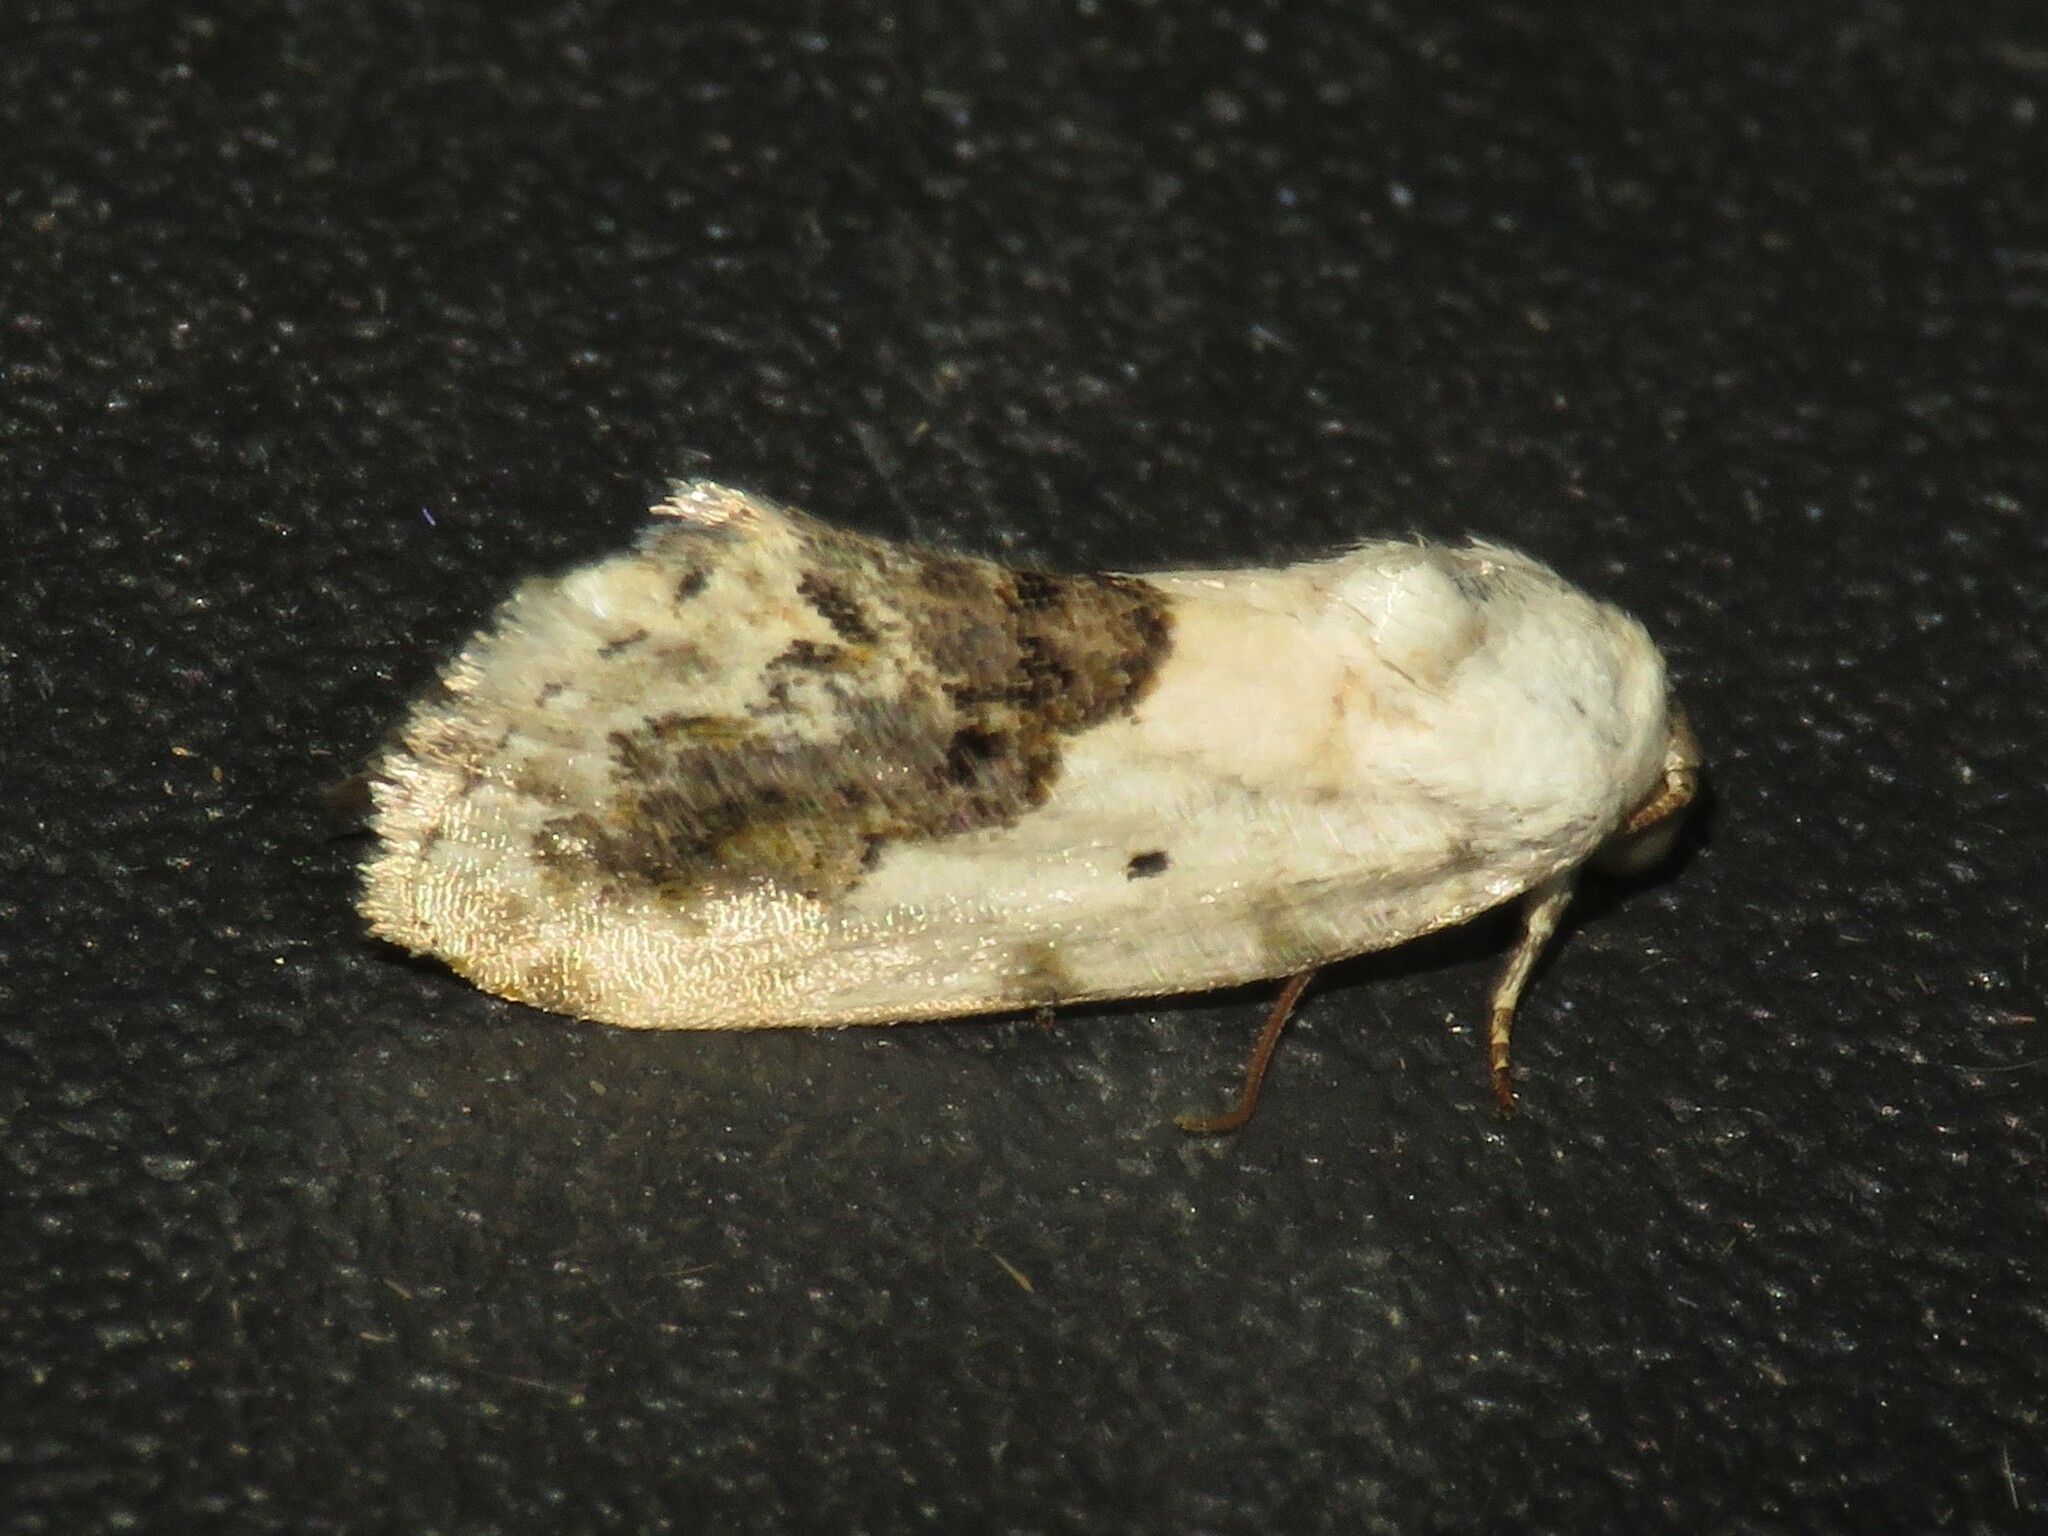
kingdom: Animalia
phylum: Arthropoda
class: Insecta
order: Lepidoptera
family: Noctuidae
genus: Acontia
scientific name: Acontia erastrioides
